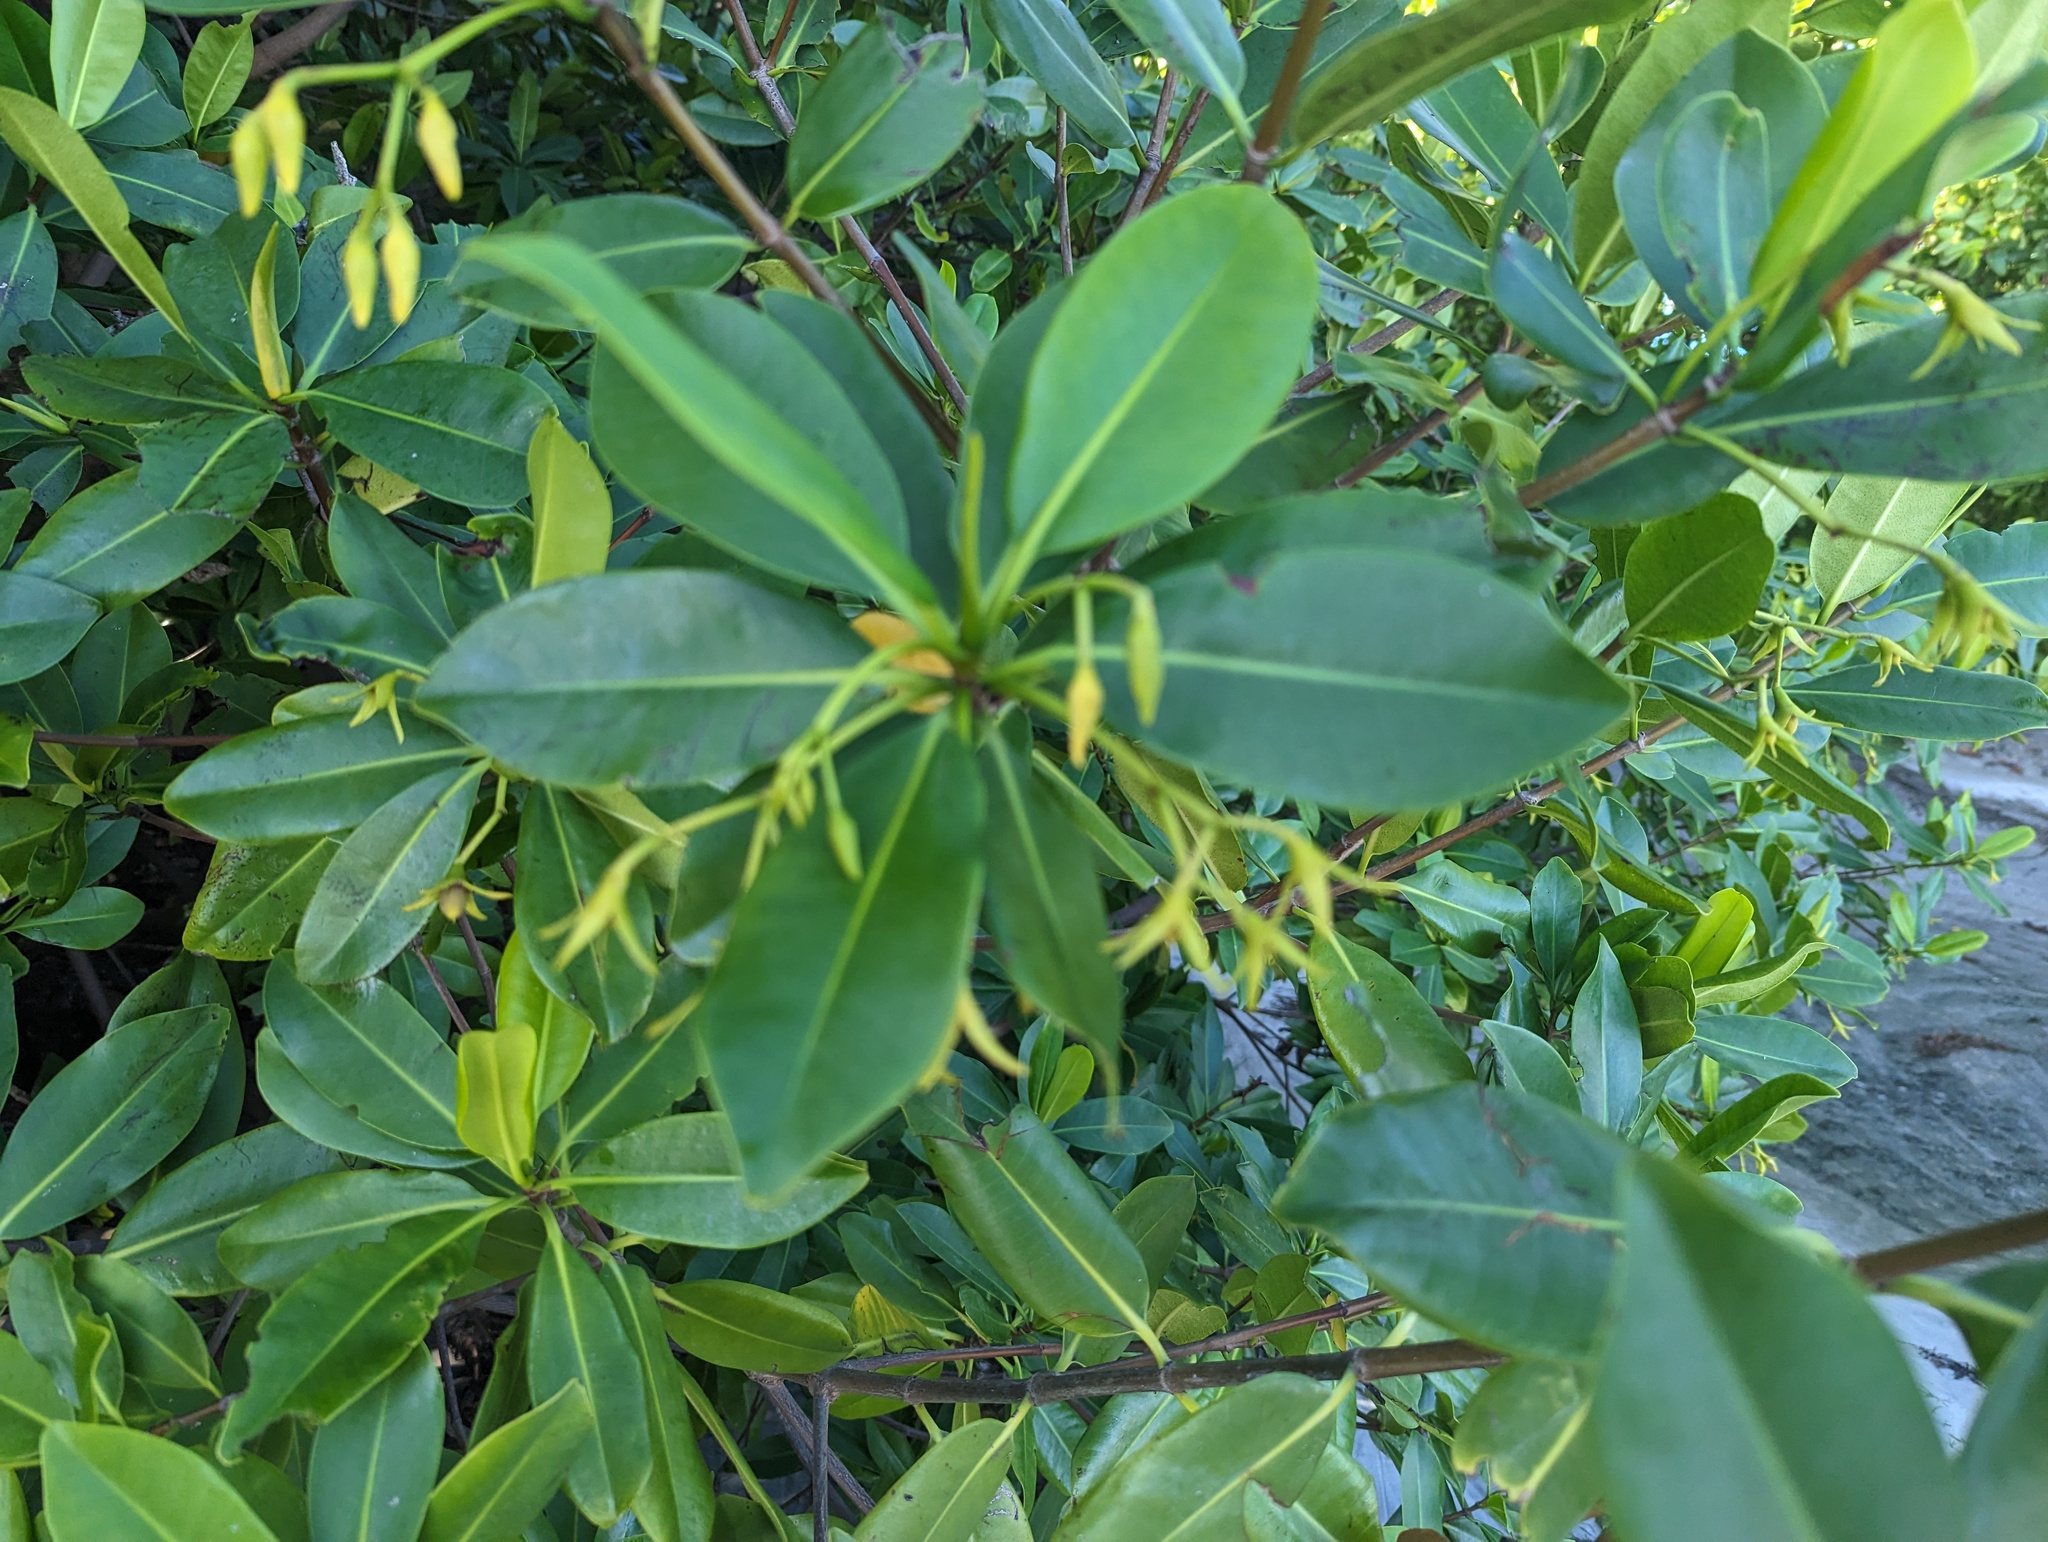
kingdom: Plantae
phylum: Tracheophyta
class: Magnoliopsida
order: Malpighiales
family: Rhizophoraceae
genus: Rhizophora
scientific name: Rhizophora mangle
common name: Red mangrove
